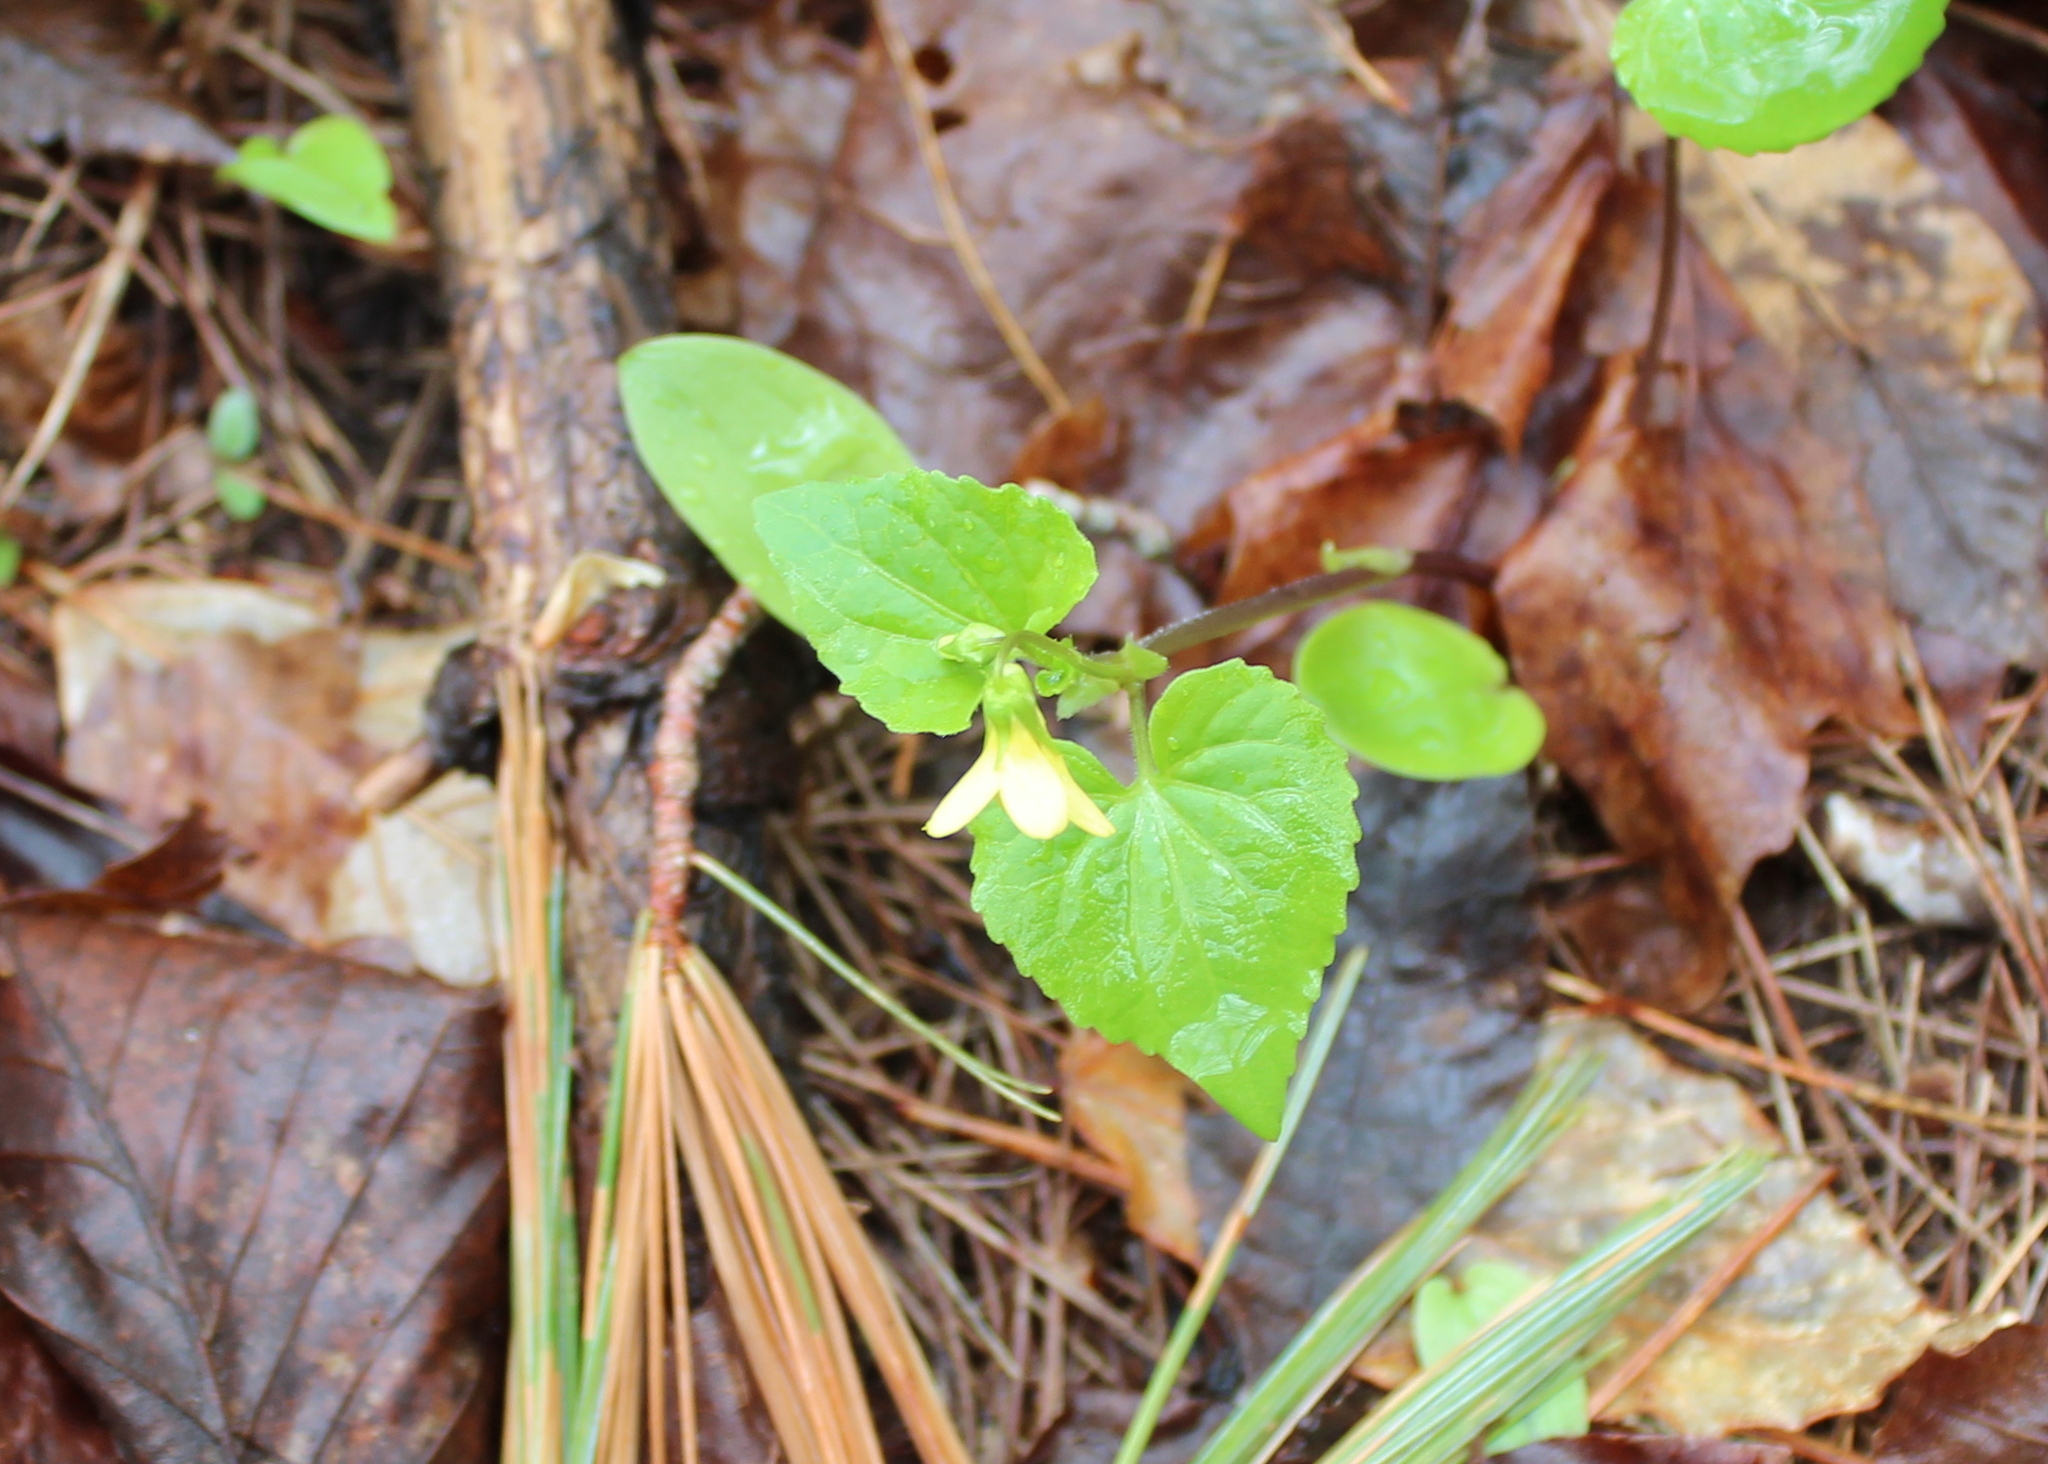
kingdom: Plantae
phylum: Tracheophyta
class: Magnoliopsida
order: Malpighiales
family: Violaceae
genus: Viola
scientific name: Viola eriocarpa
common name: Smooth yellow violet
